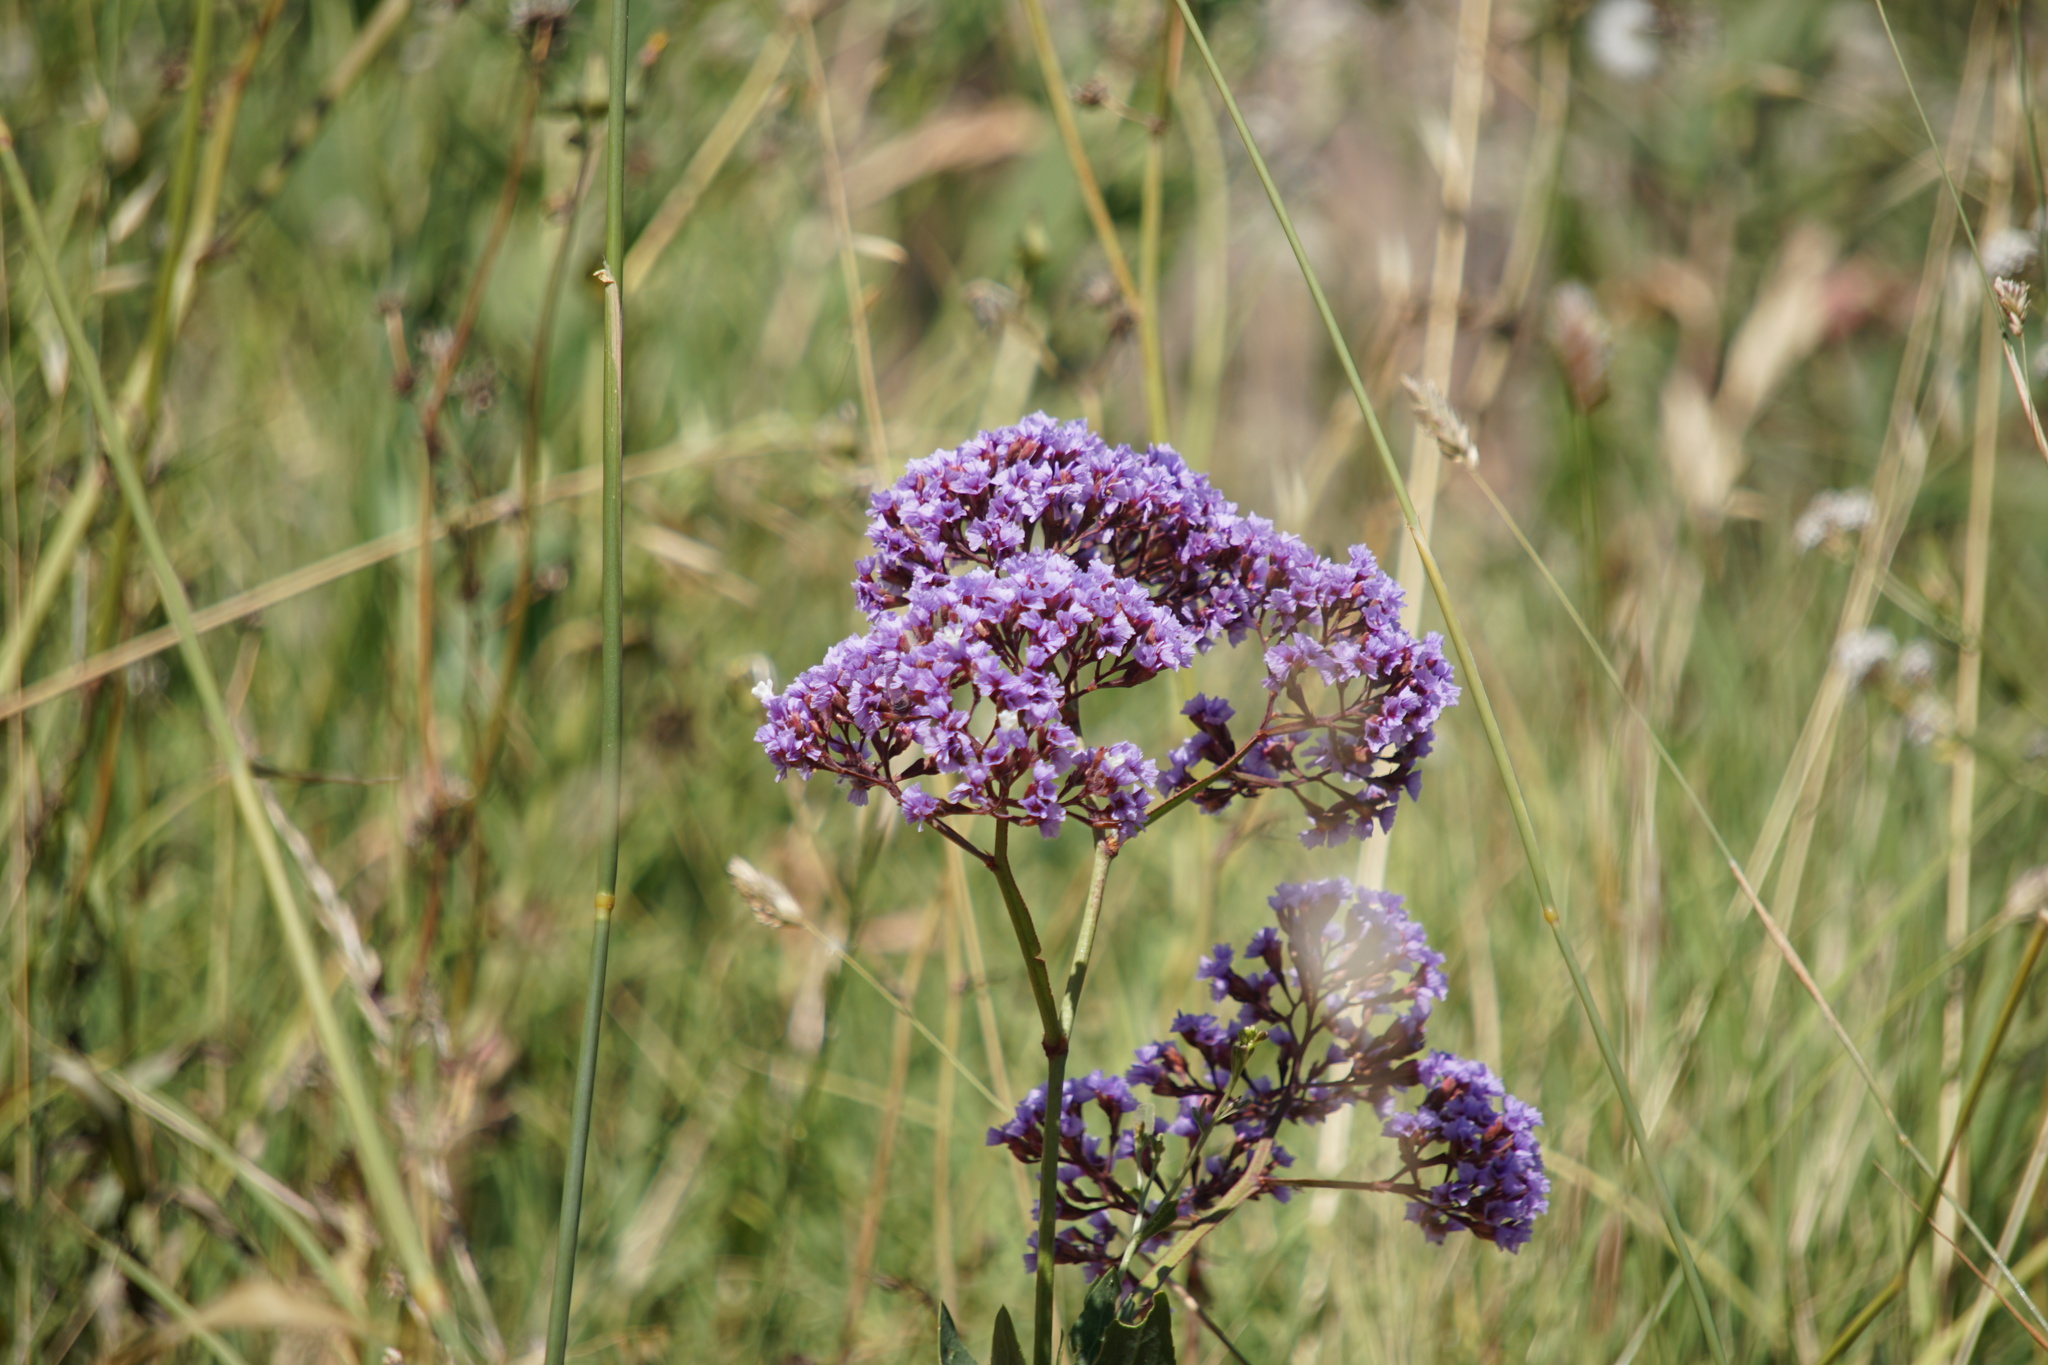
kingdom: Plantae
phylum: Tracheophyta
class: Magnoliopsida
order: Caryophyllales
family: Plumbaginaceae
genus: Limonium
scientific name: Limonium perezii
